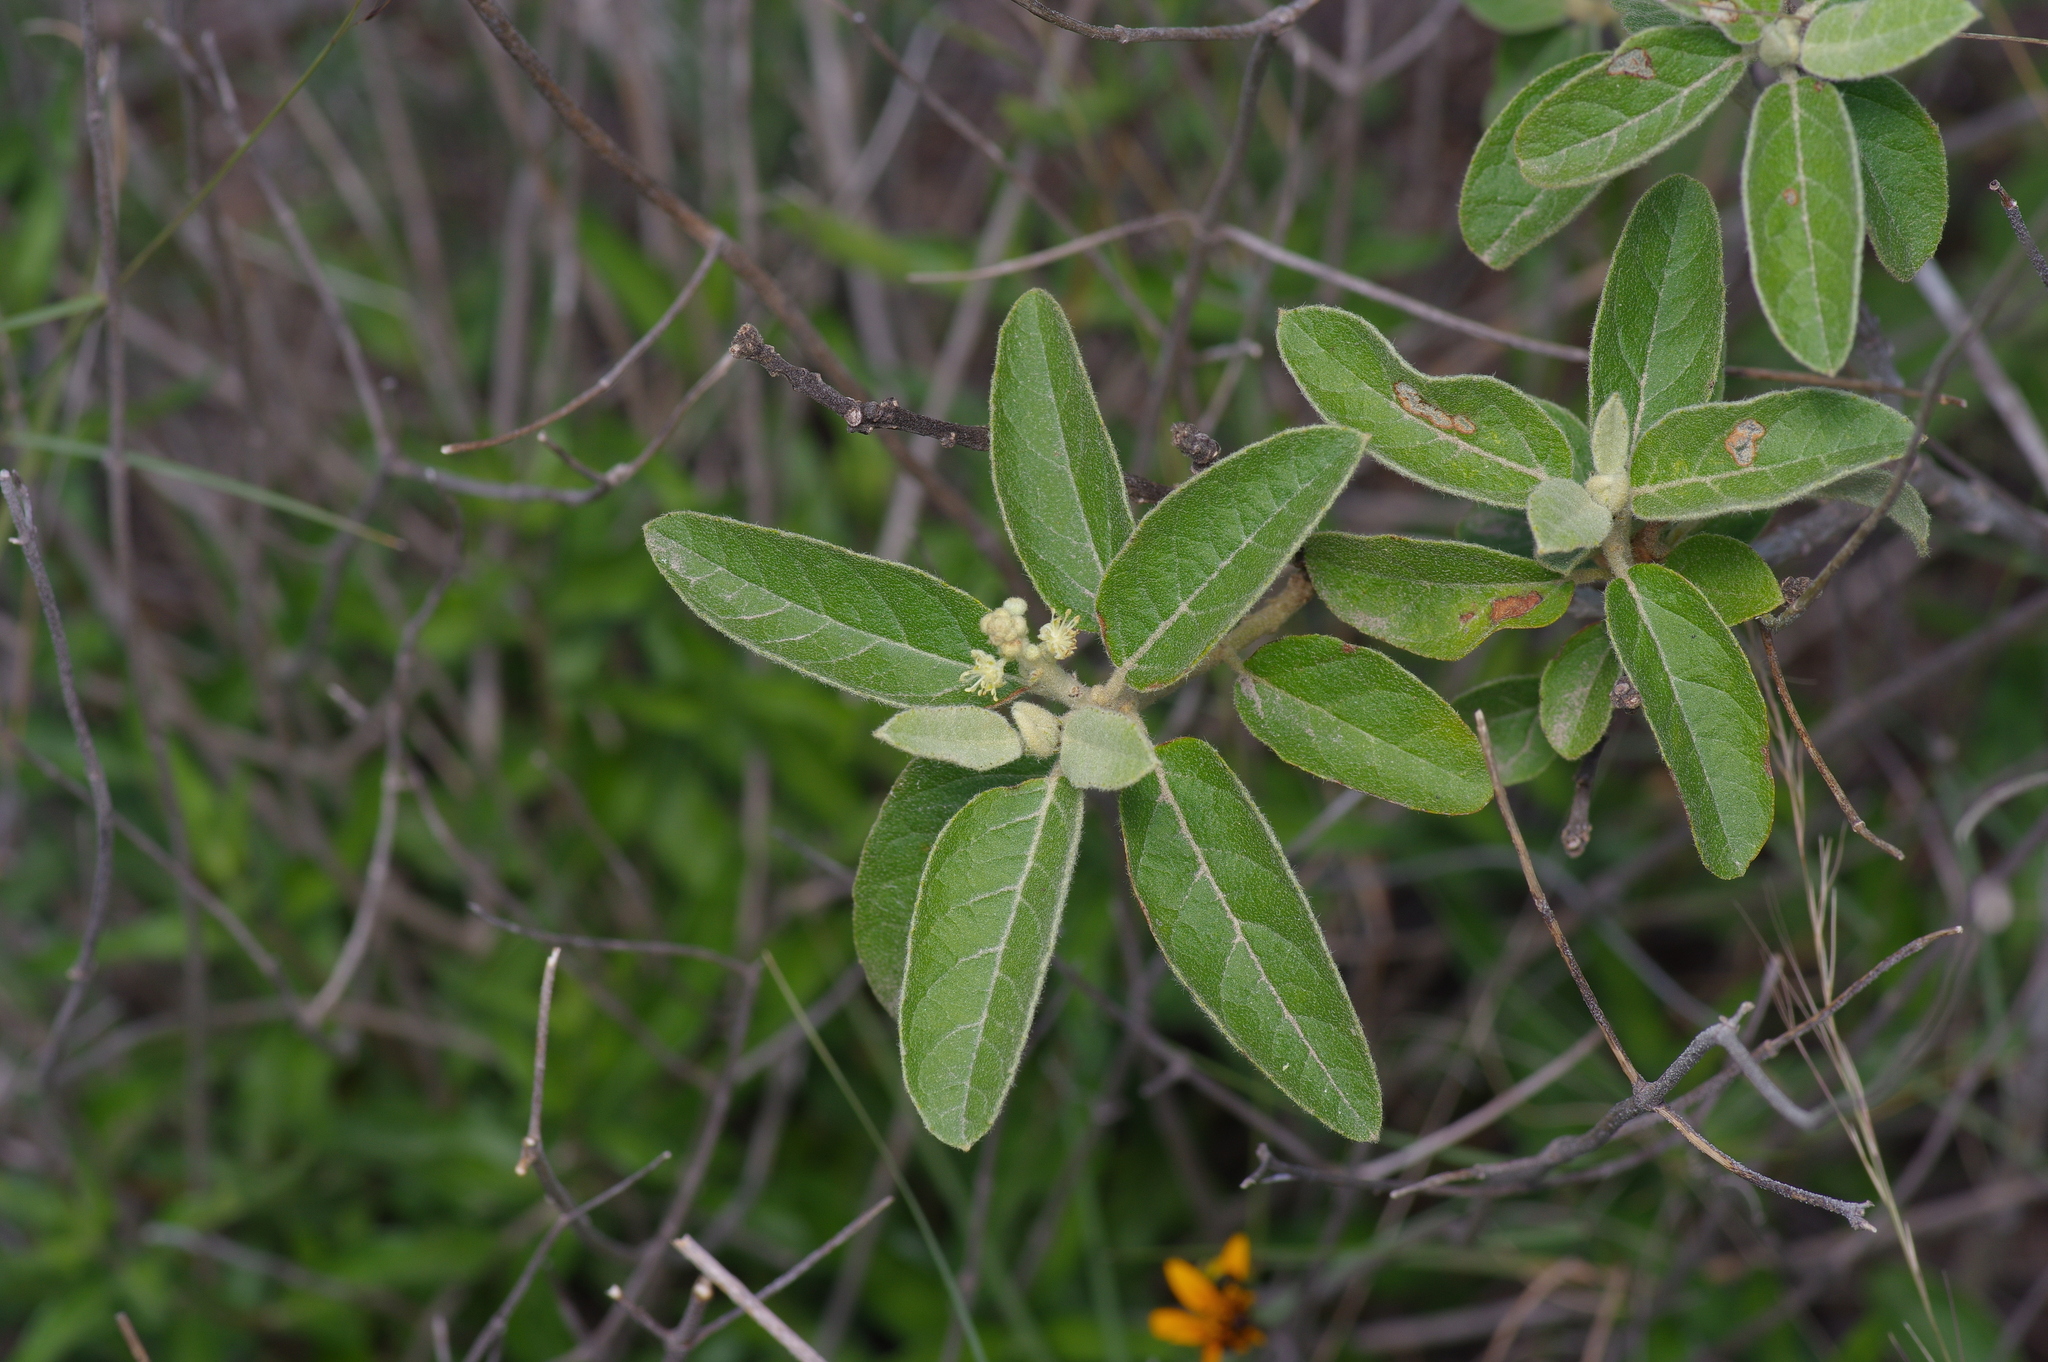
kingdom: Plantae
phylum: Tracheophyta
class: Magnoliopsida
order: Malpighiales
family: Euphorbiaceae
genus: Croton
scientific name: Croton incanus
